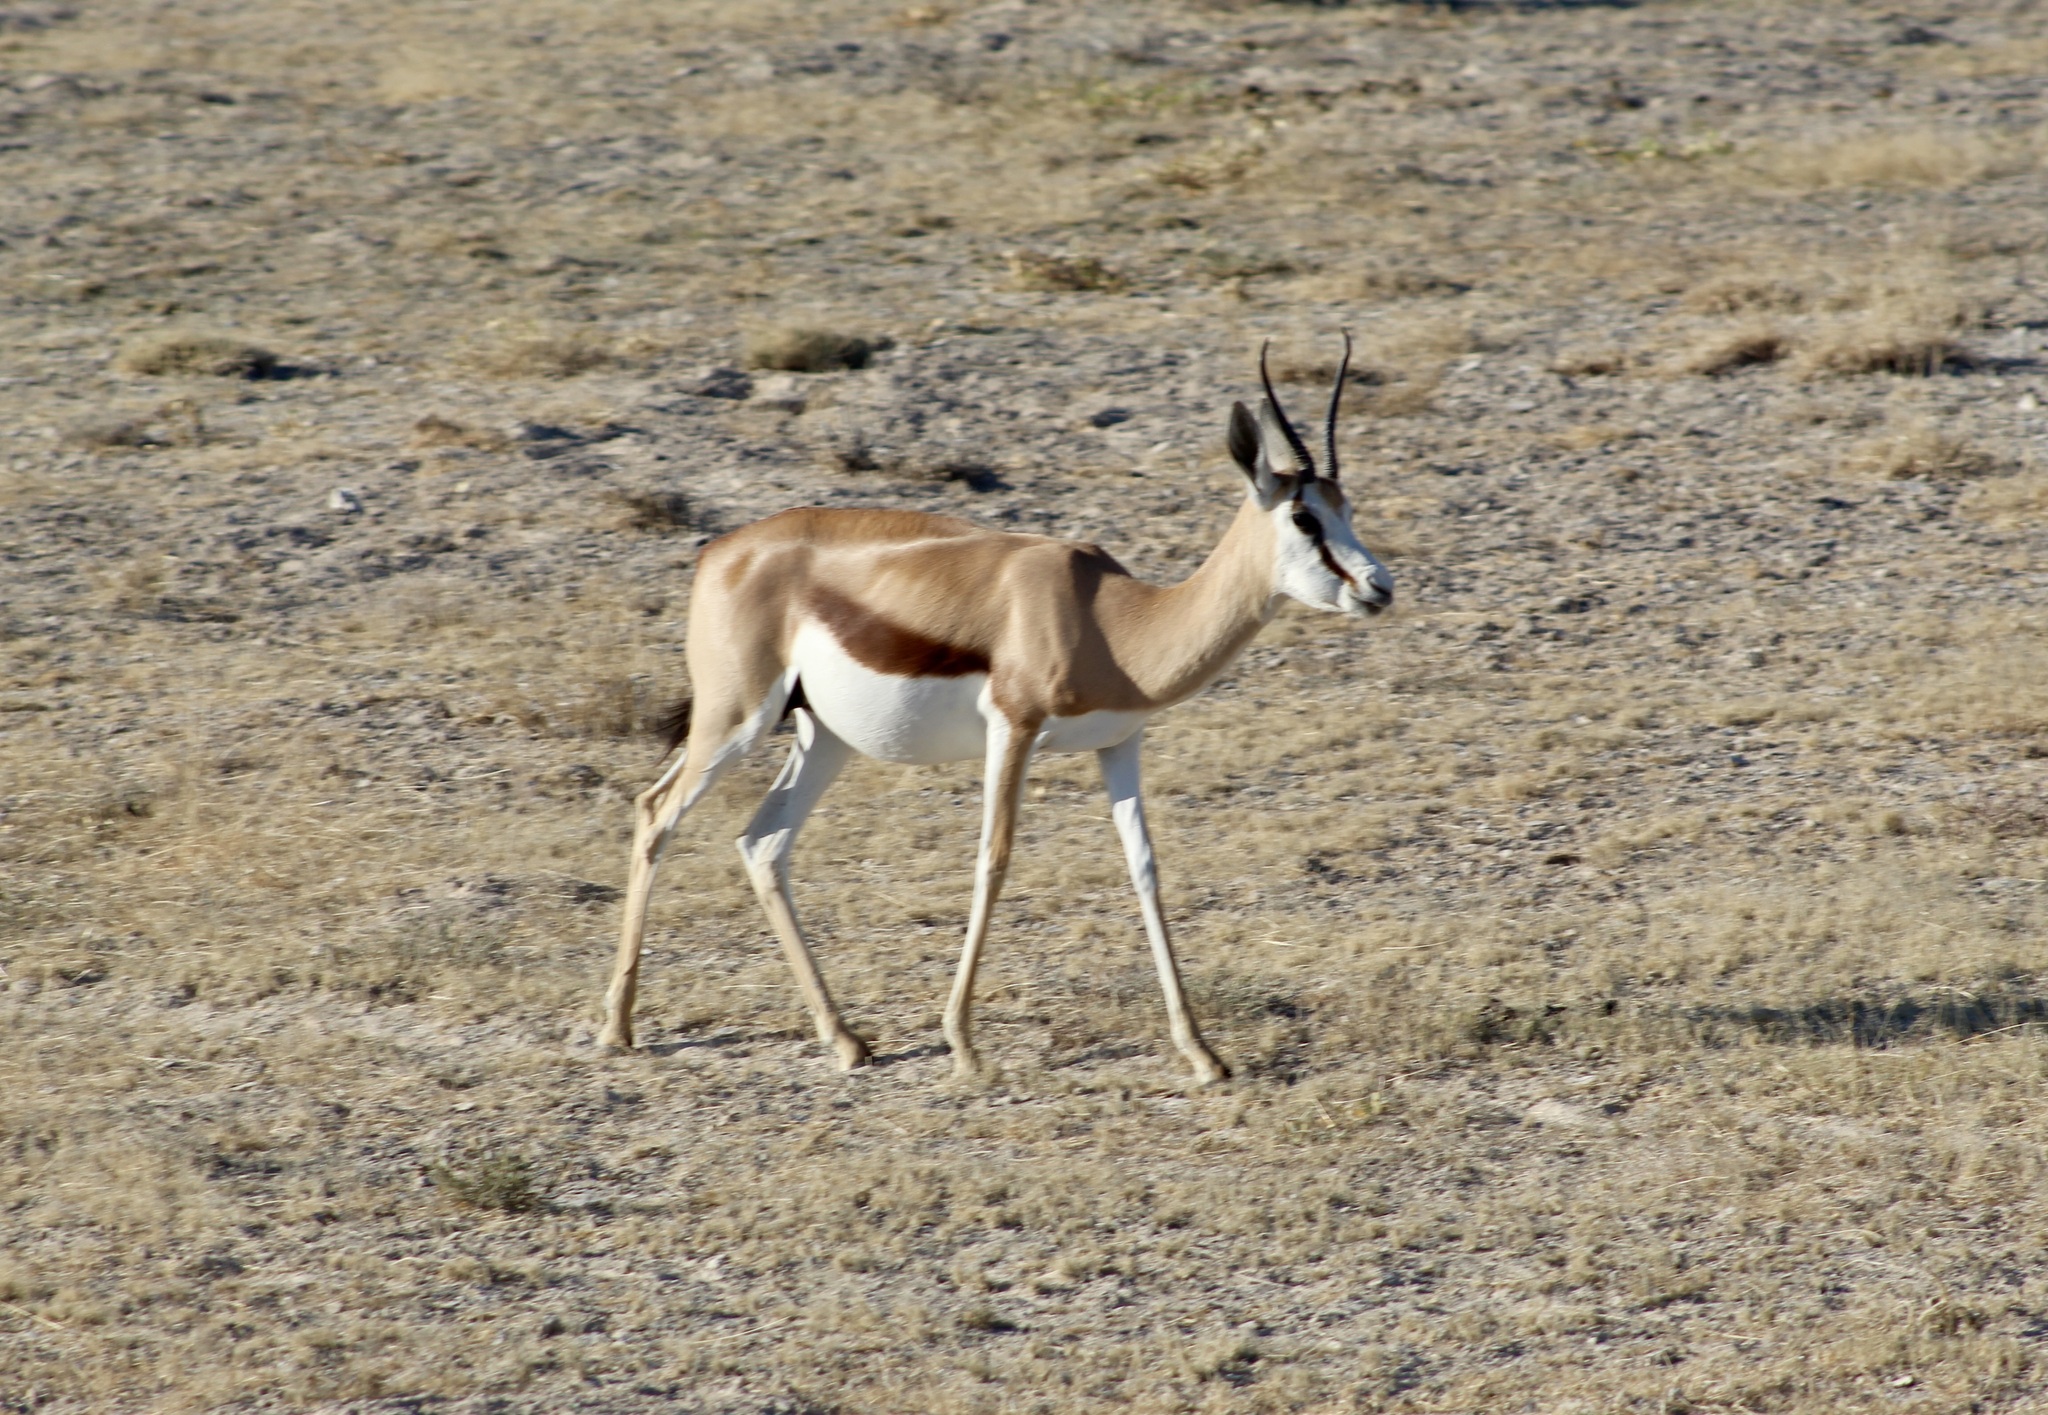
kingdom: Animalia
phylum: Chordata
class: Mammalia
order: Artiodactyla
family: Bovidae
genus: Antidorcas
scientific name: Antidorcas marsupialis
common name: Springbok
